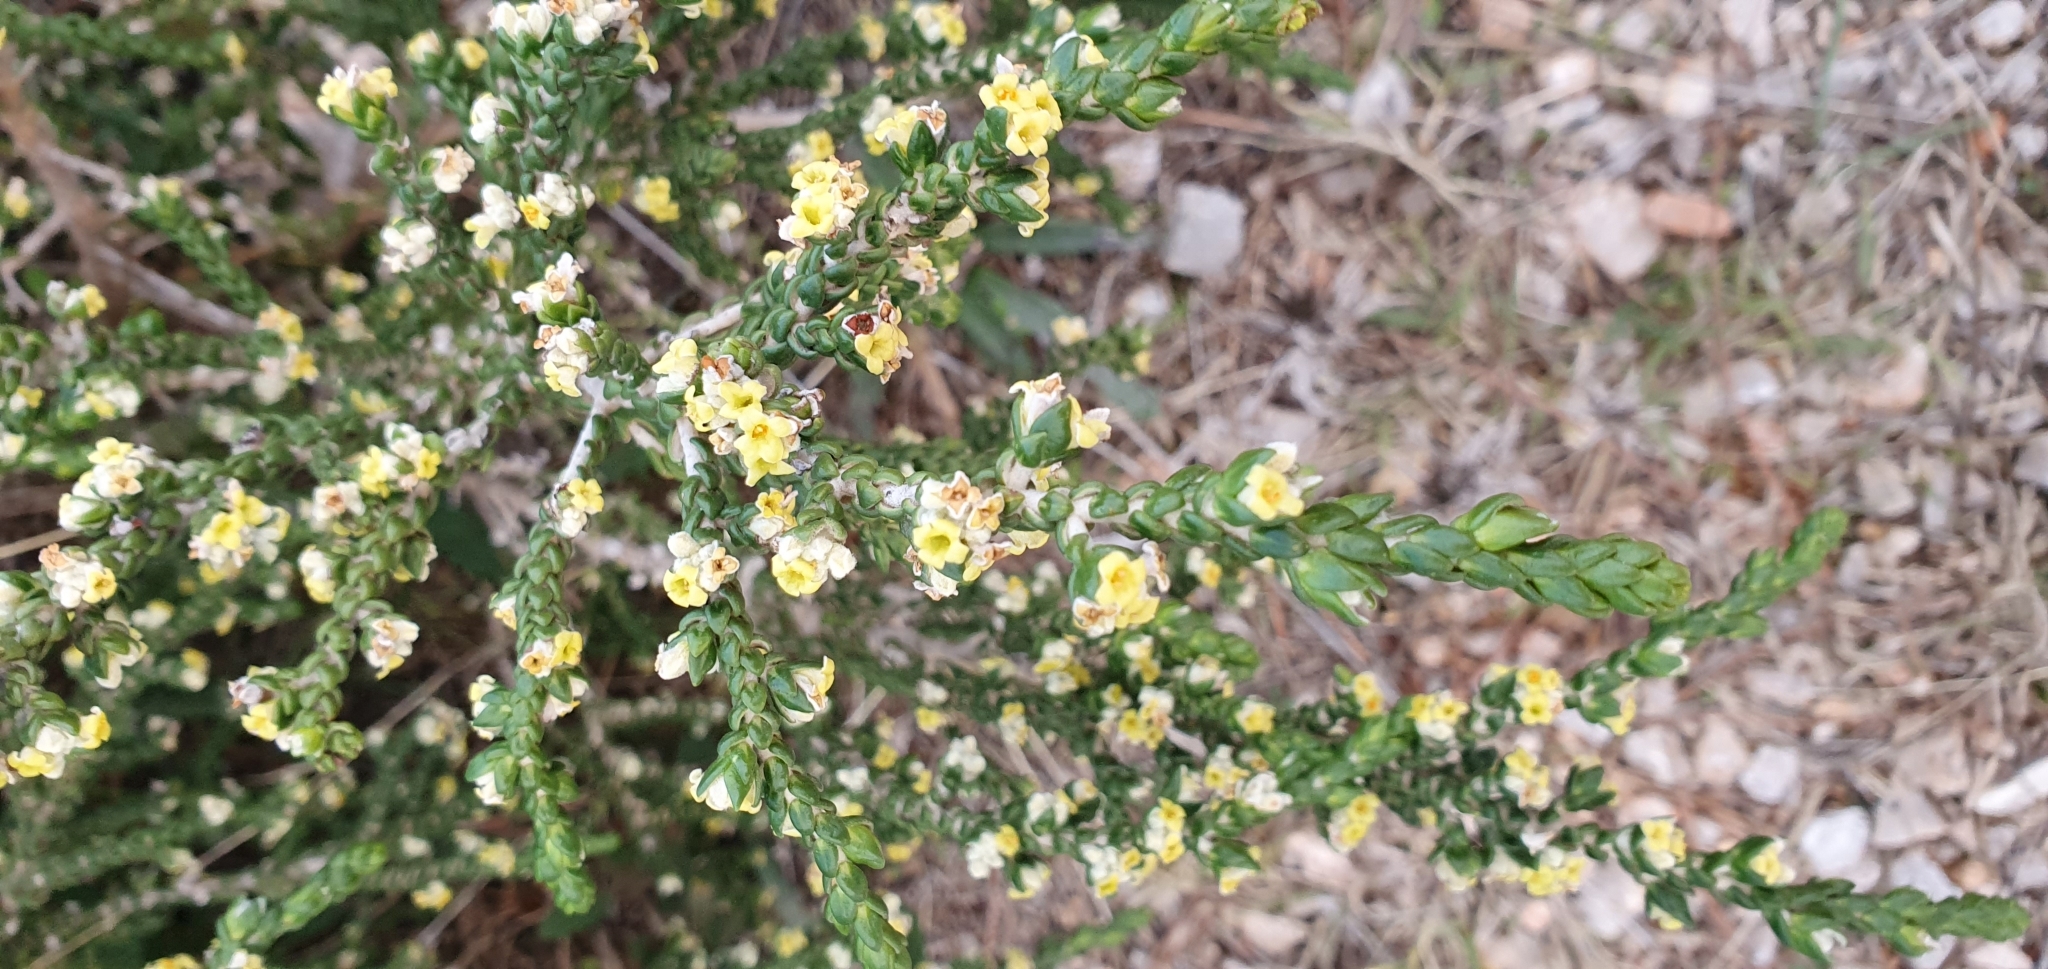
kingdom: Plantae
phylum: Tracheophyta
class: Magnoliopsida
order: Malvales
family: Thymelaeaceae
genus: Thymelaea
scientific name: Thymelaea hirsuta
